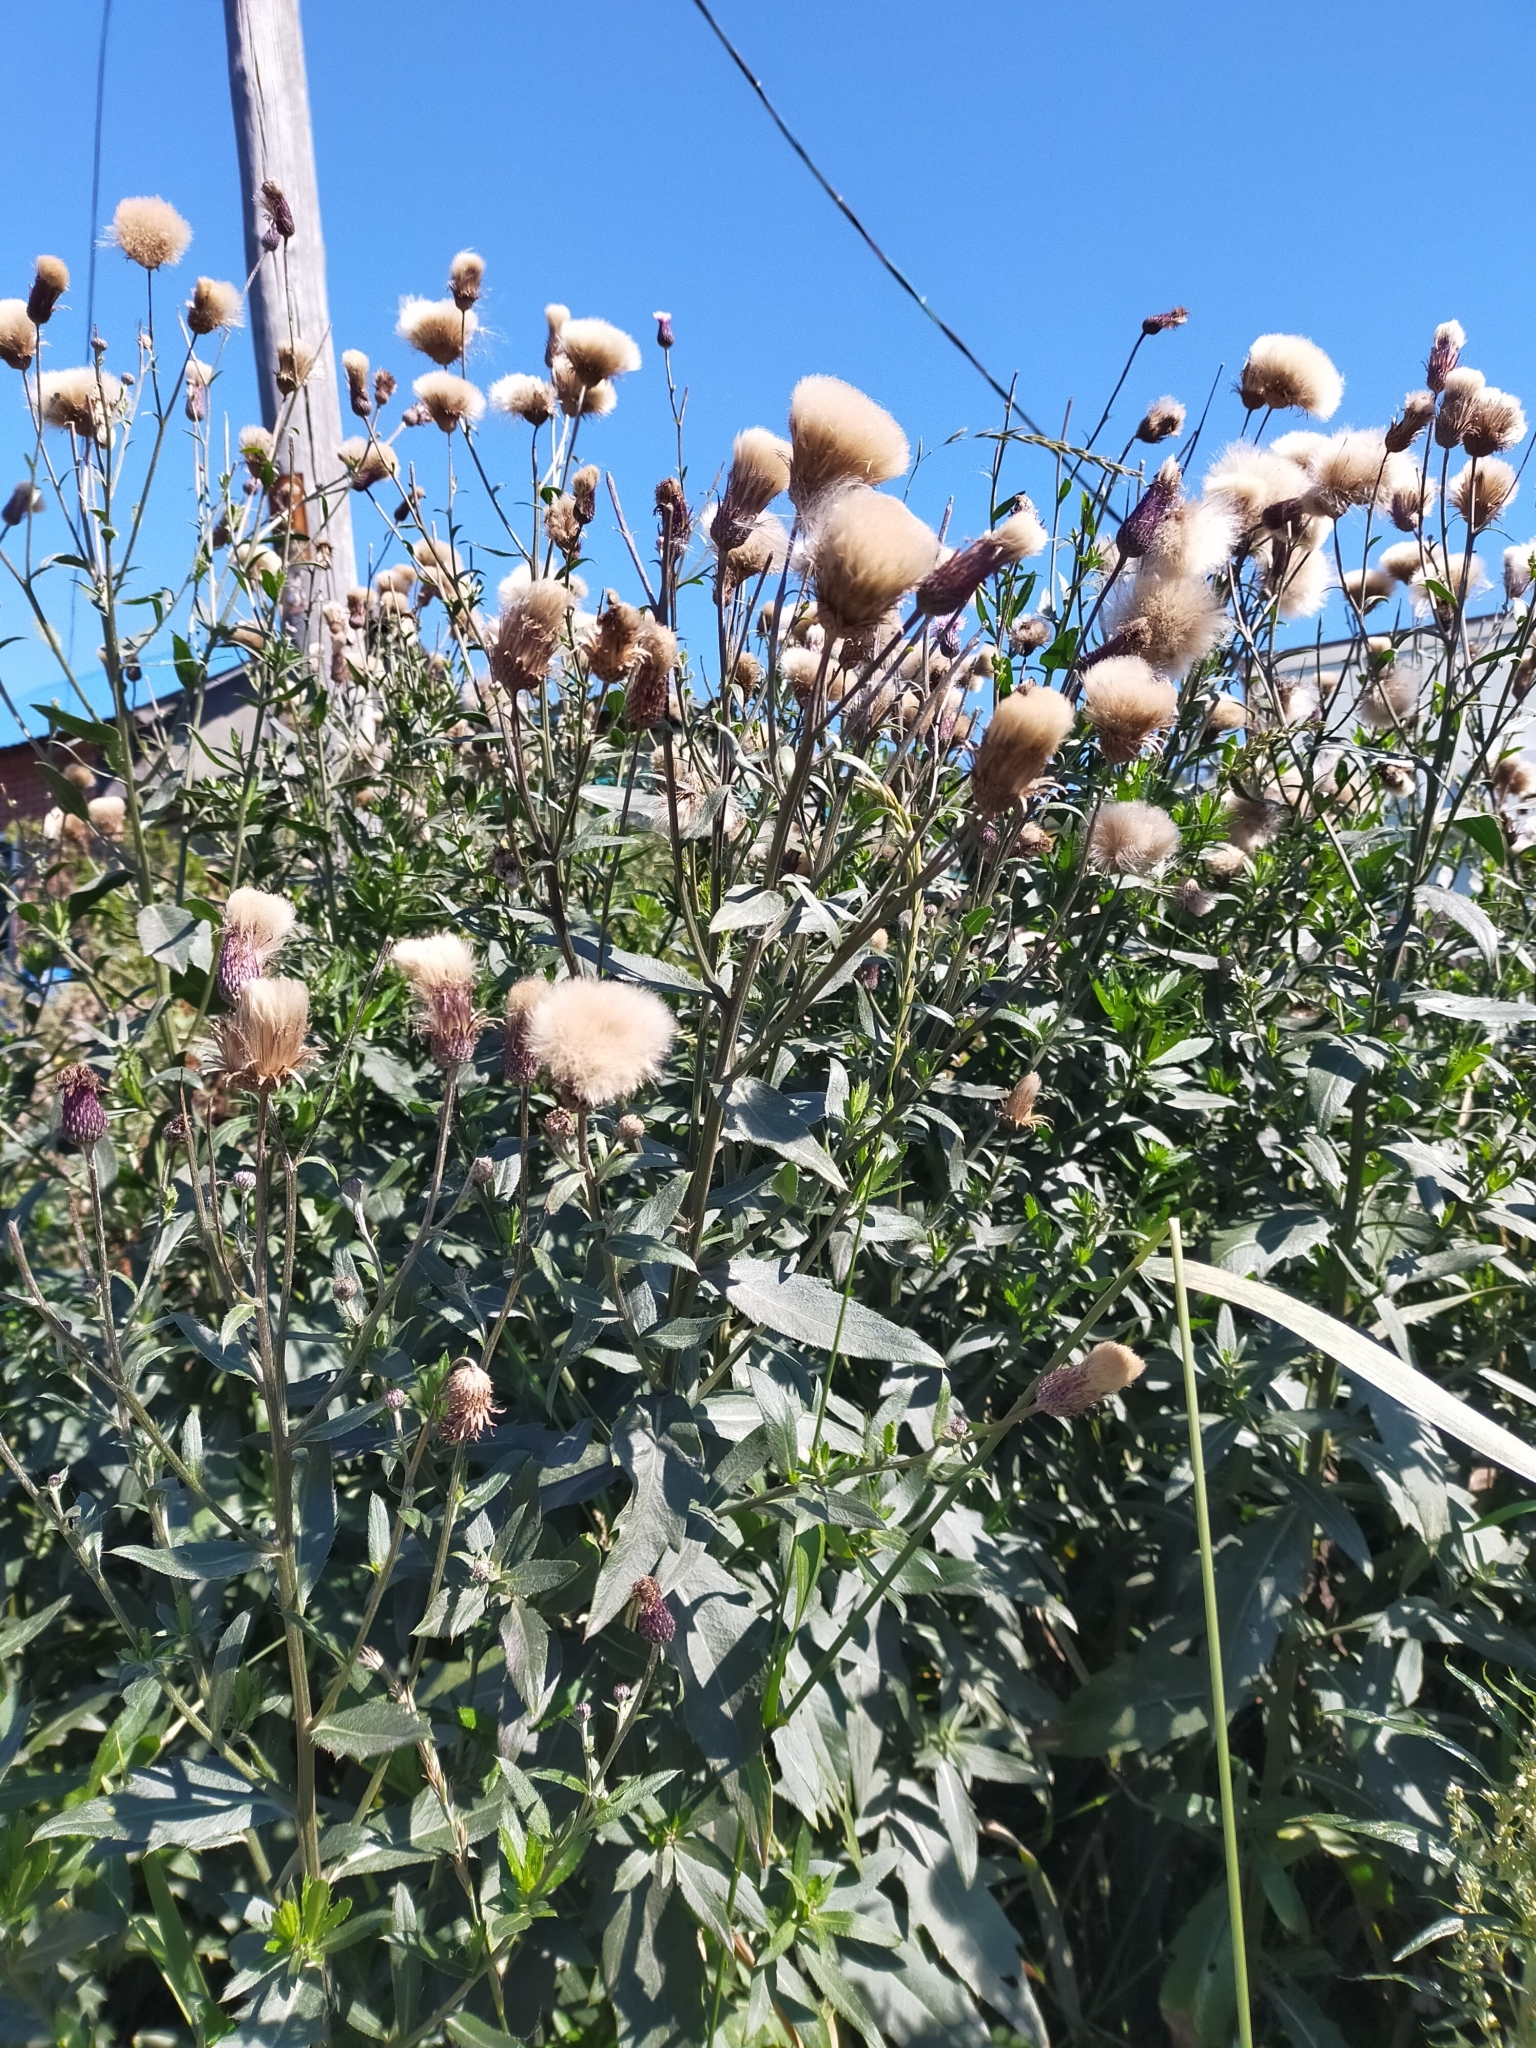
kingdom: Plantae
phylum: Tracheophyta
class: Magnoliopsida
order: Asterales
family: Asteraceae
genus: Cirsium
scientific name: Cirsium arvense
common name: Creeping thistle
